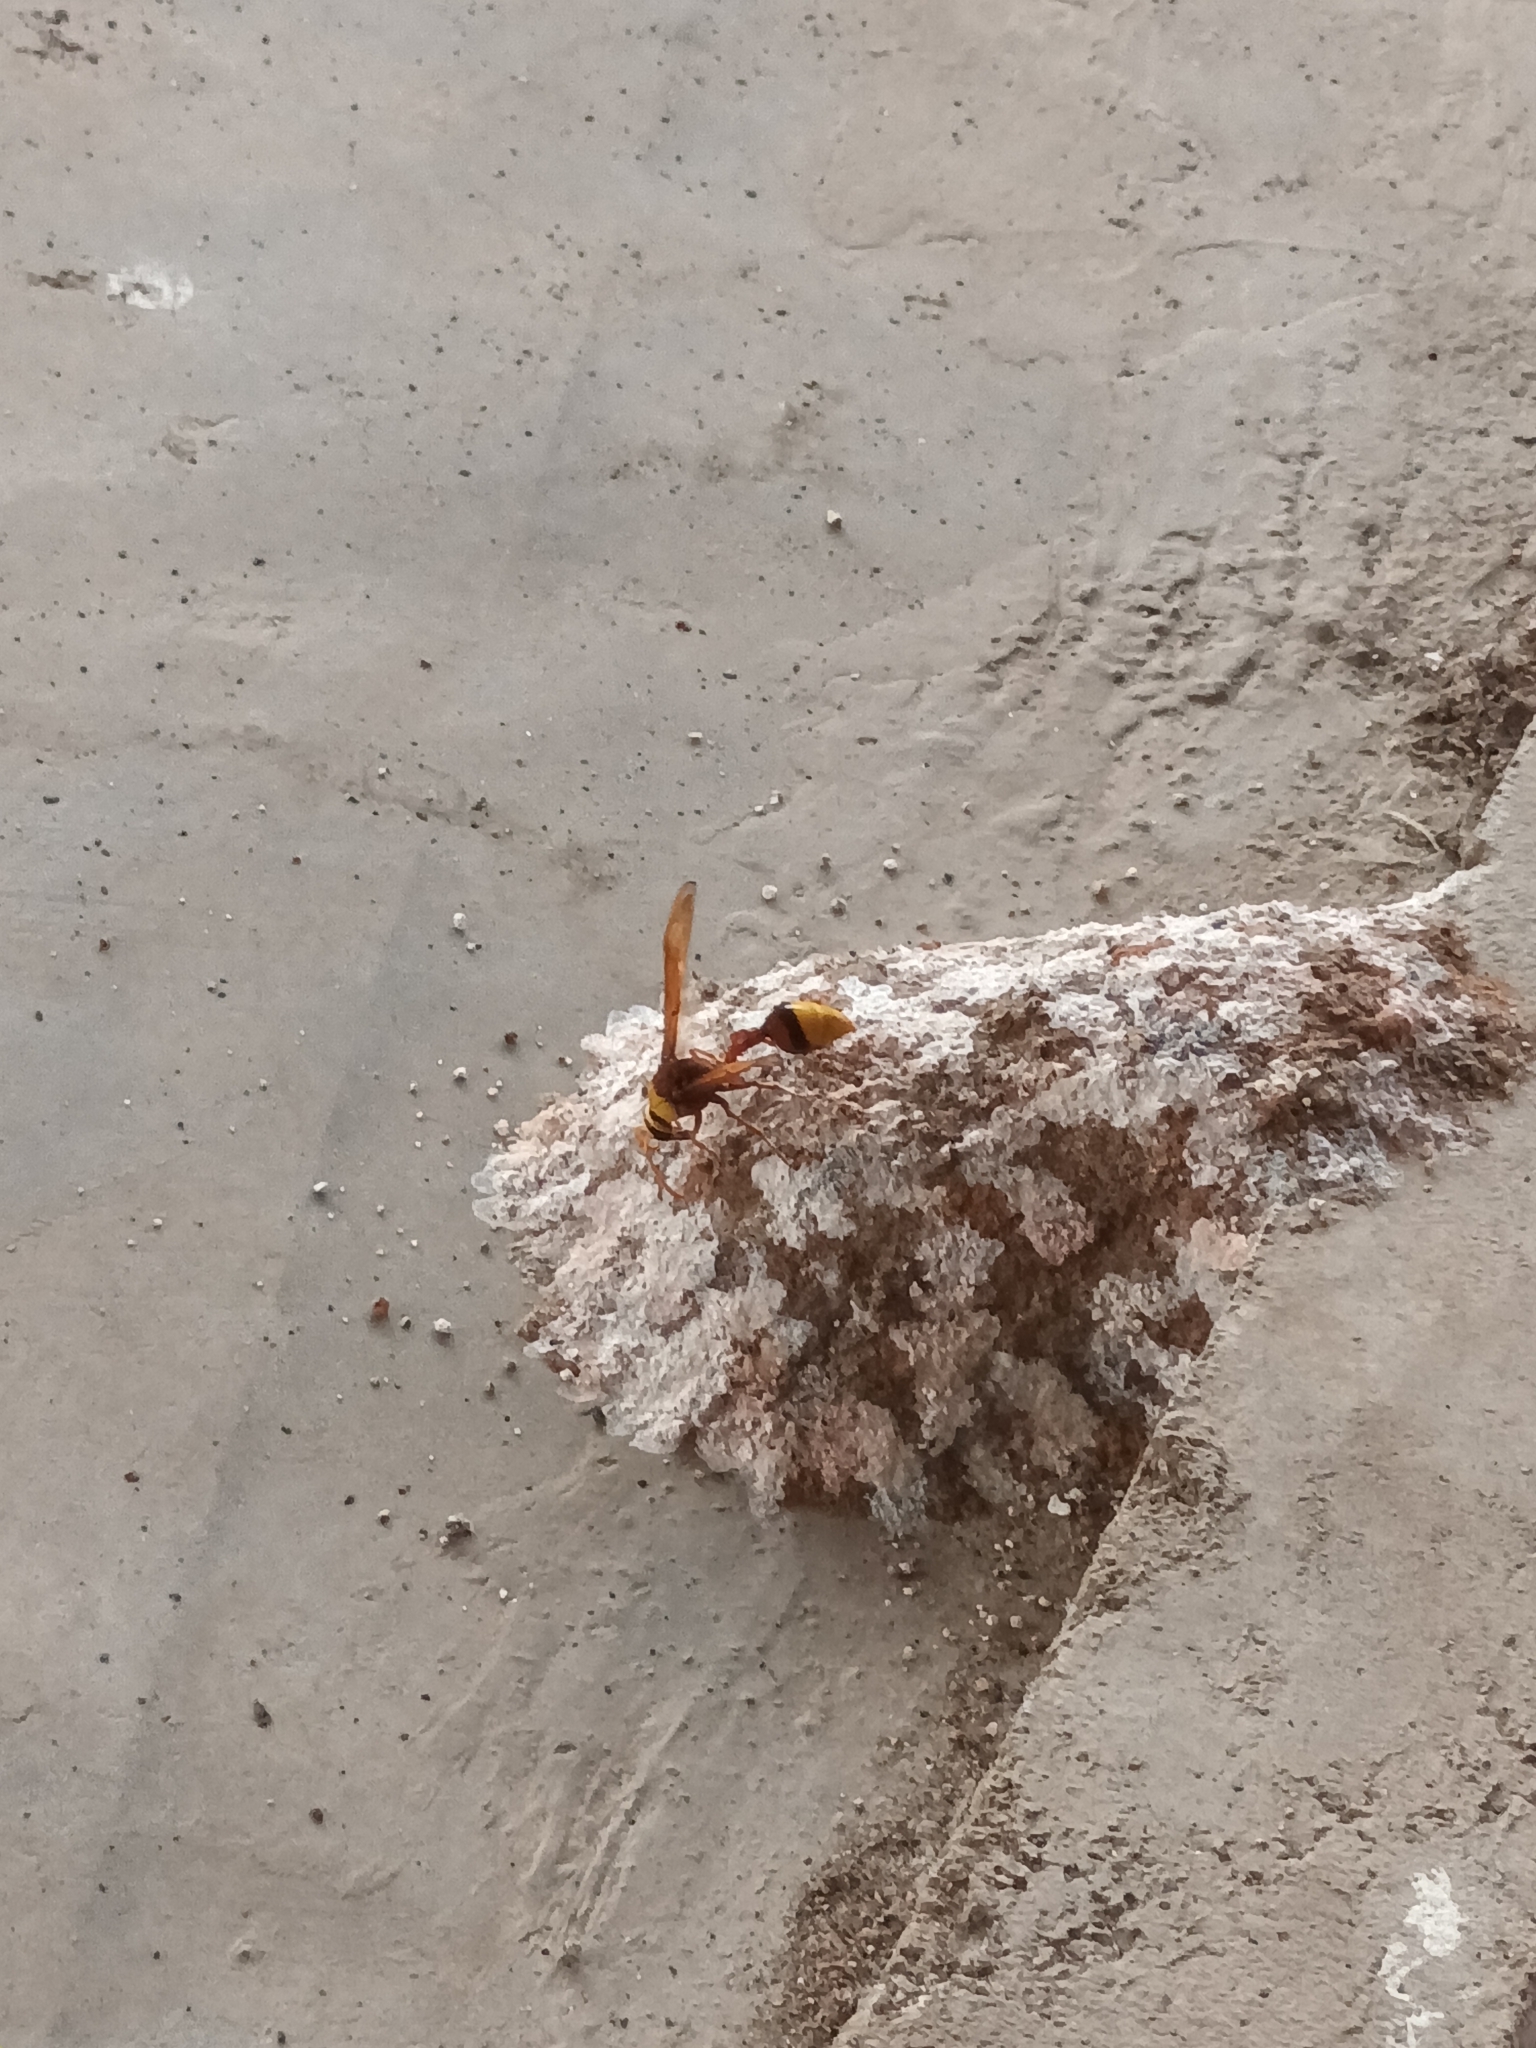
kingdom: Animalia
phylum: Arthropoda
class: Insecta
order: Hymenoptera
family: Eumenidae
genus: Delta
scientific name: Delta pyriforme
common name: Wasp
